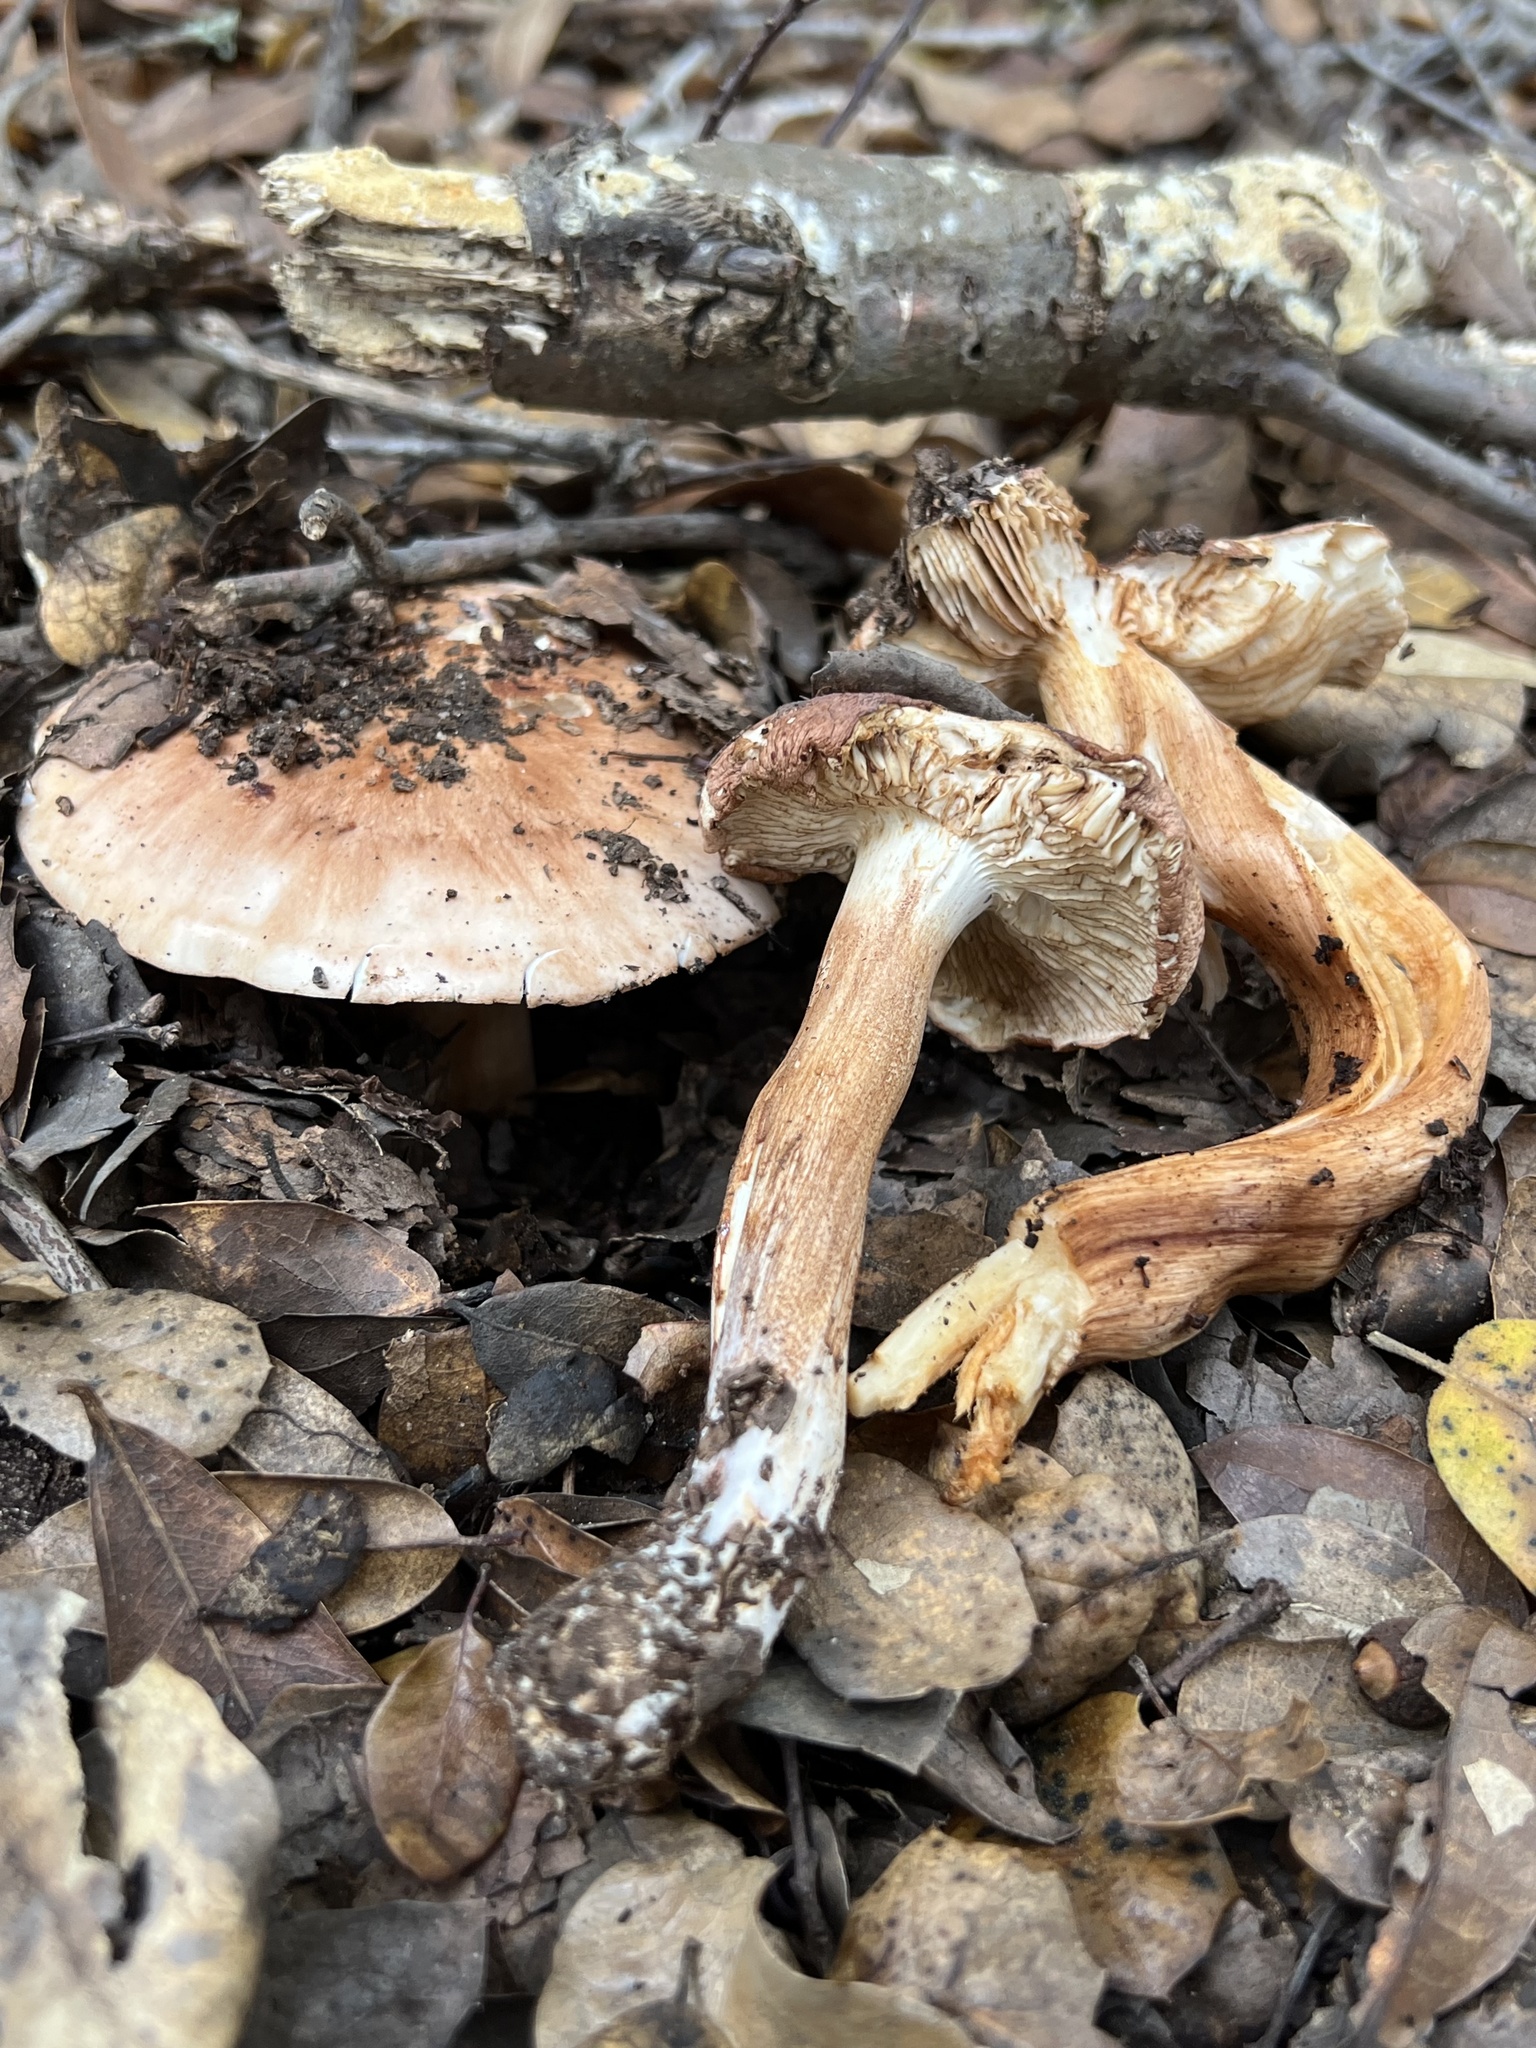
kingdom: Fungi
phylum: Basidiomycota
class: Agaricomycetes
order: Agaricales
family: Tricholomataceae
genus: Melanoleuca
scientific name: Melanoleuca dryophila
